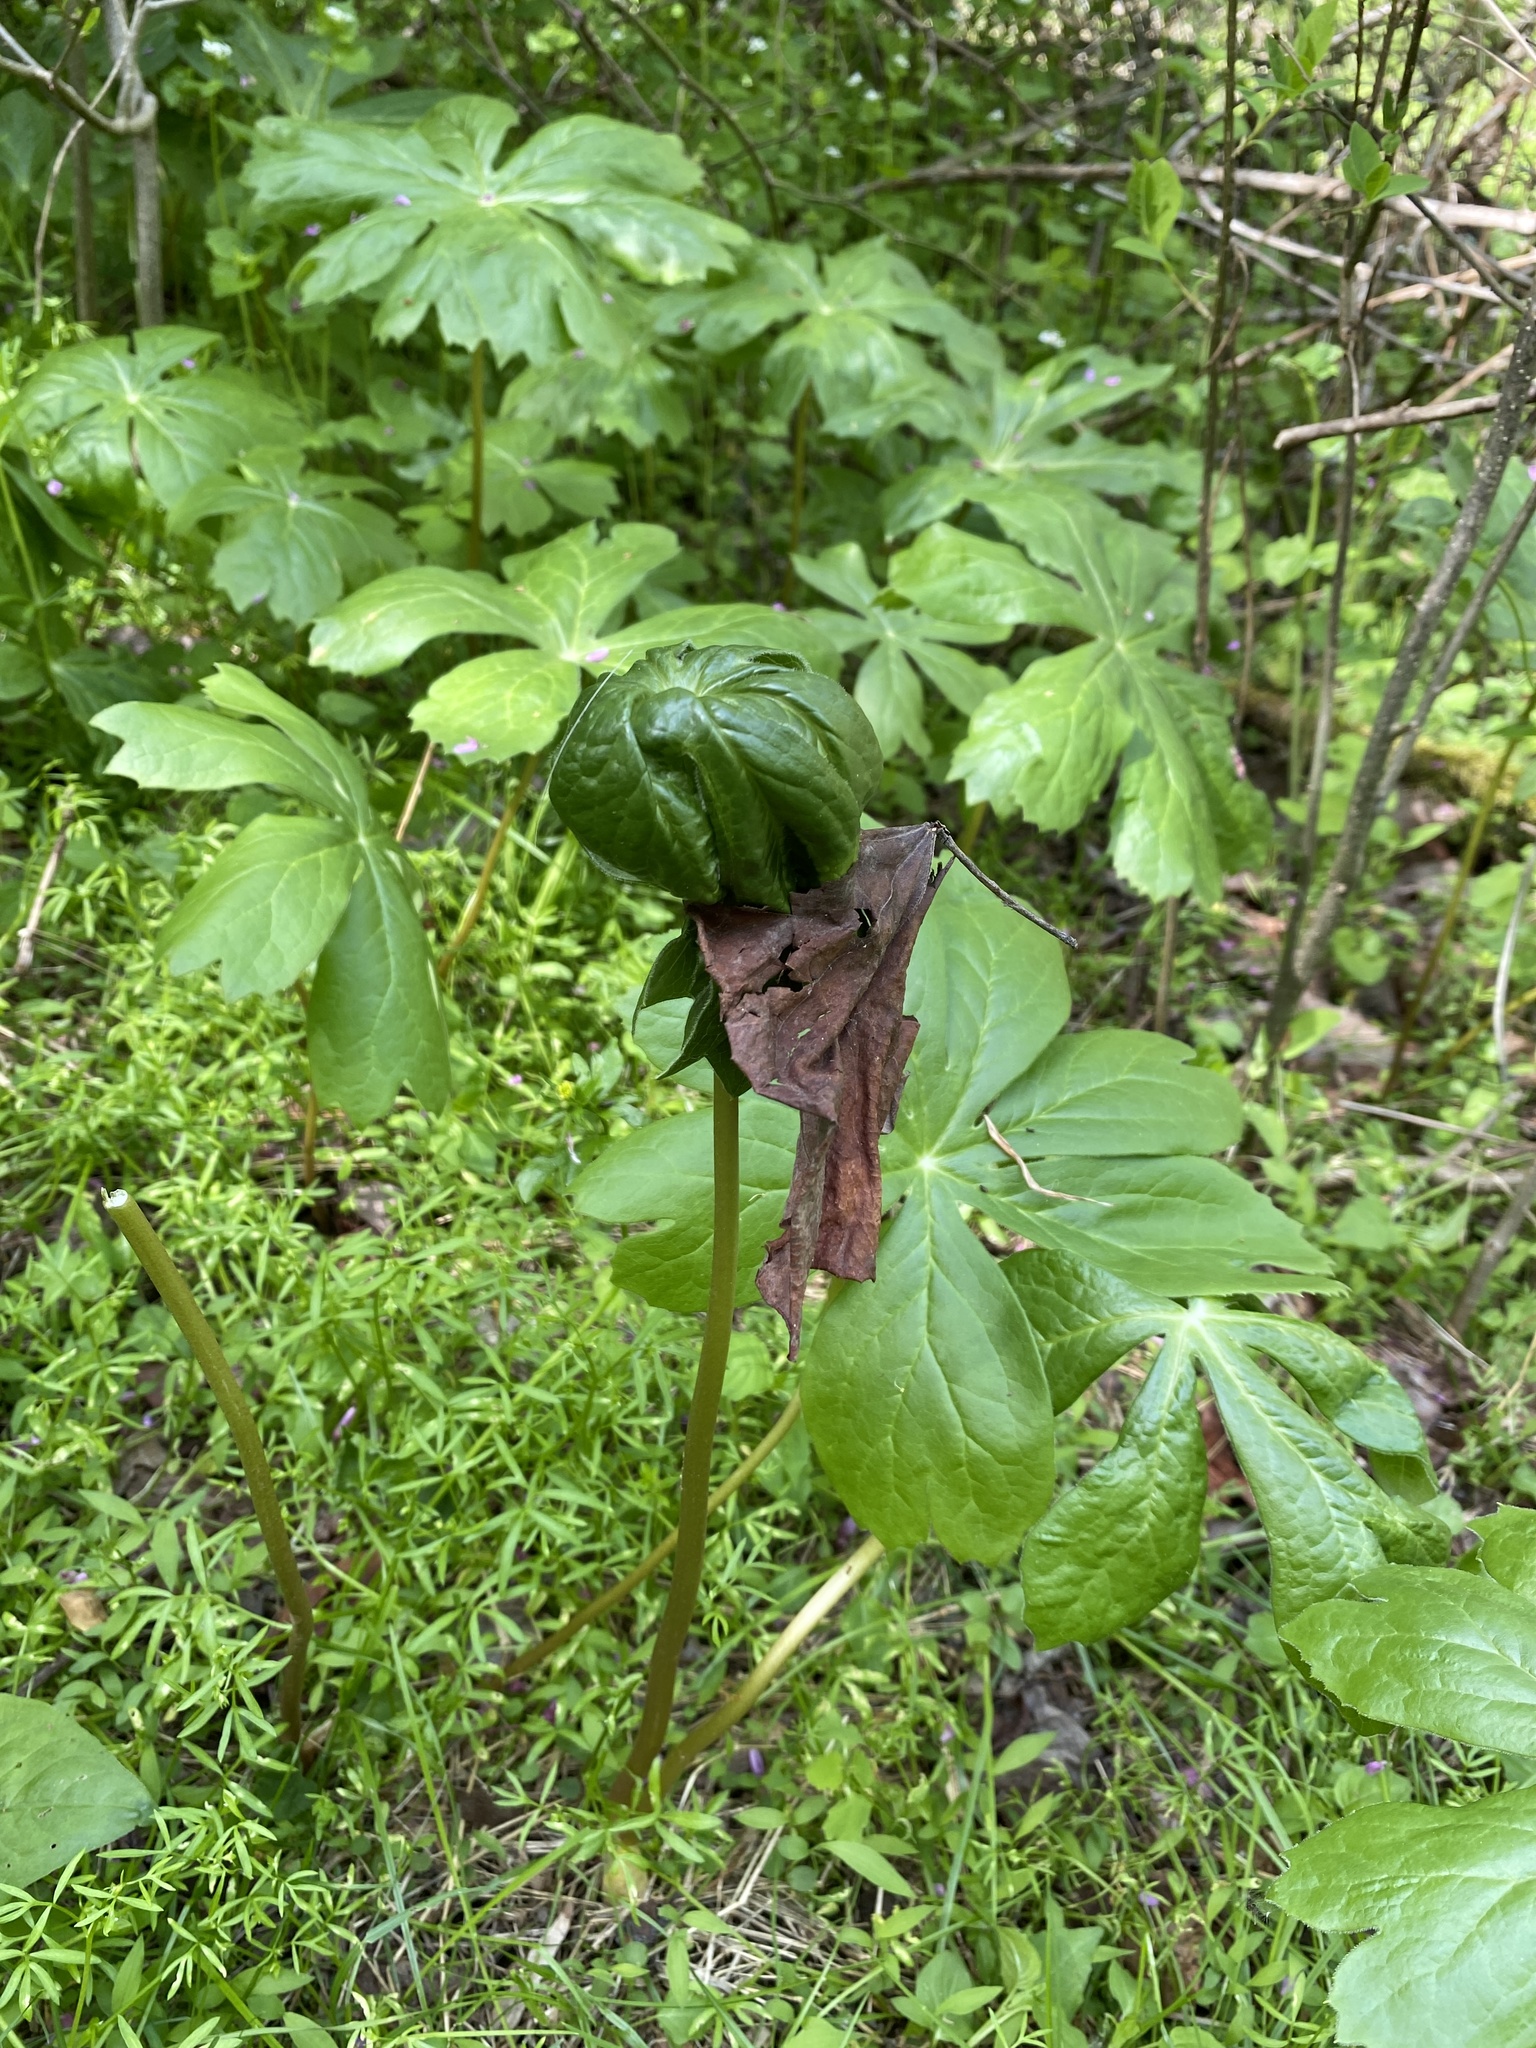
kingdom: Plantae
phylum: Tracheophyta
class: Magnoliopsida
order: Ranunculales
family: Berberidaceae
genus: Podophyllum
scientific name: Podophyllum peltatum
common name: Wild mandrake
